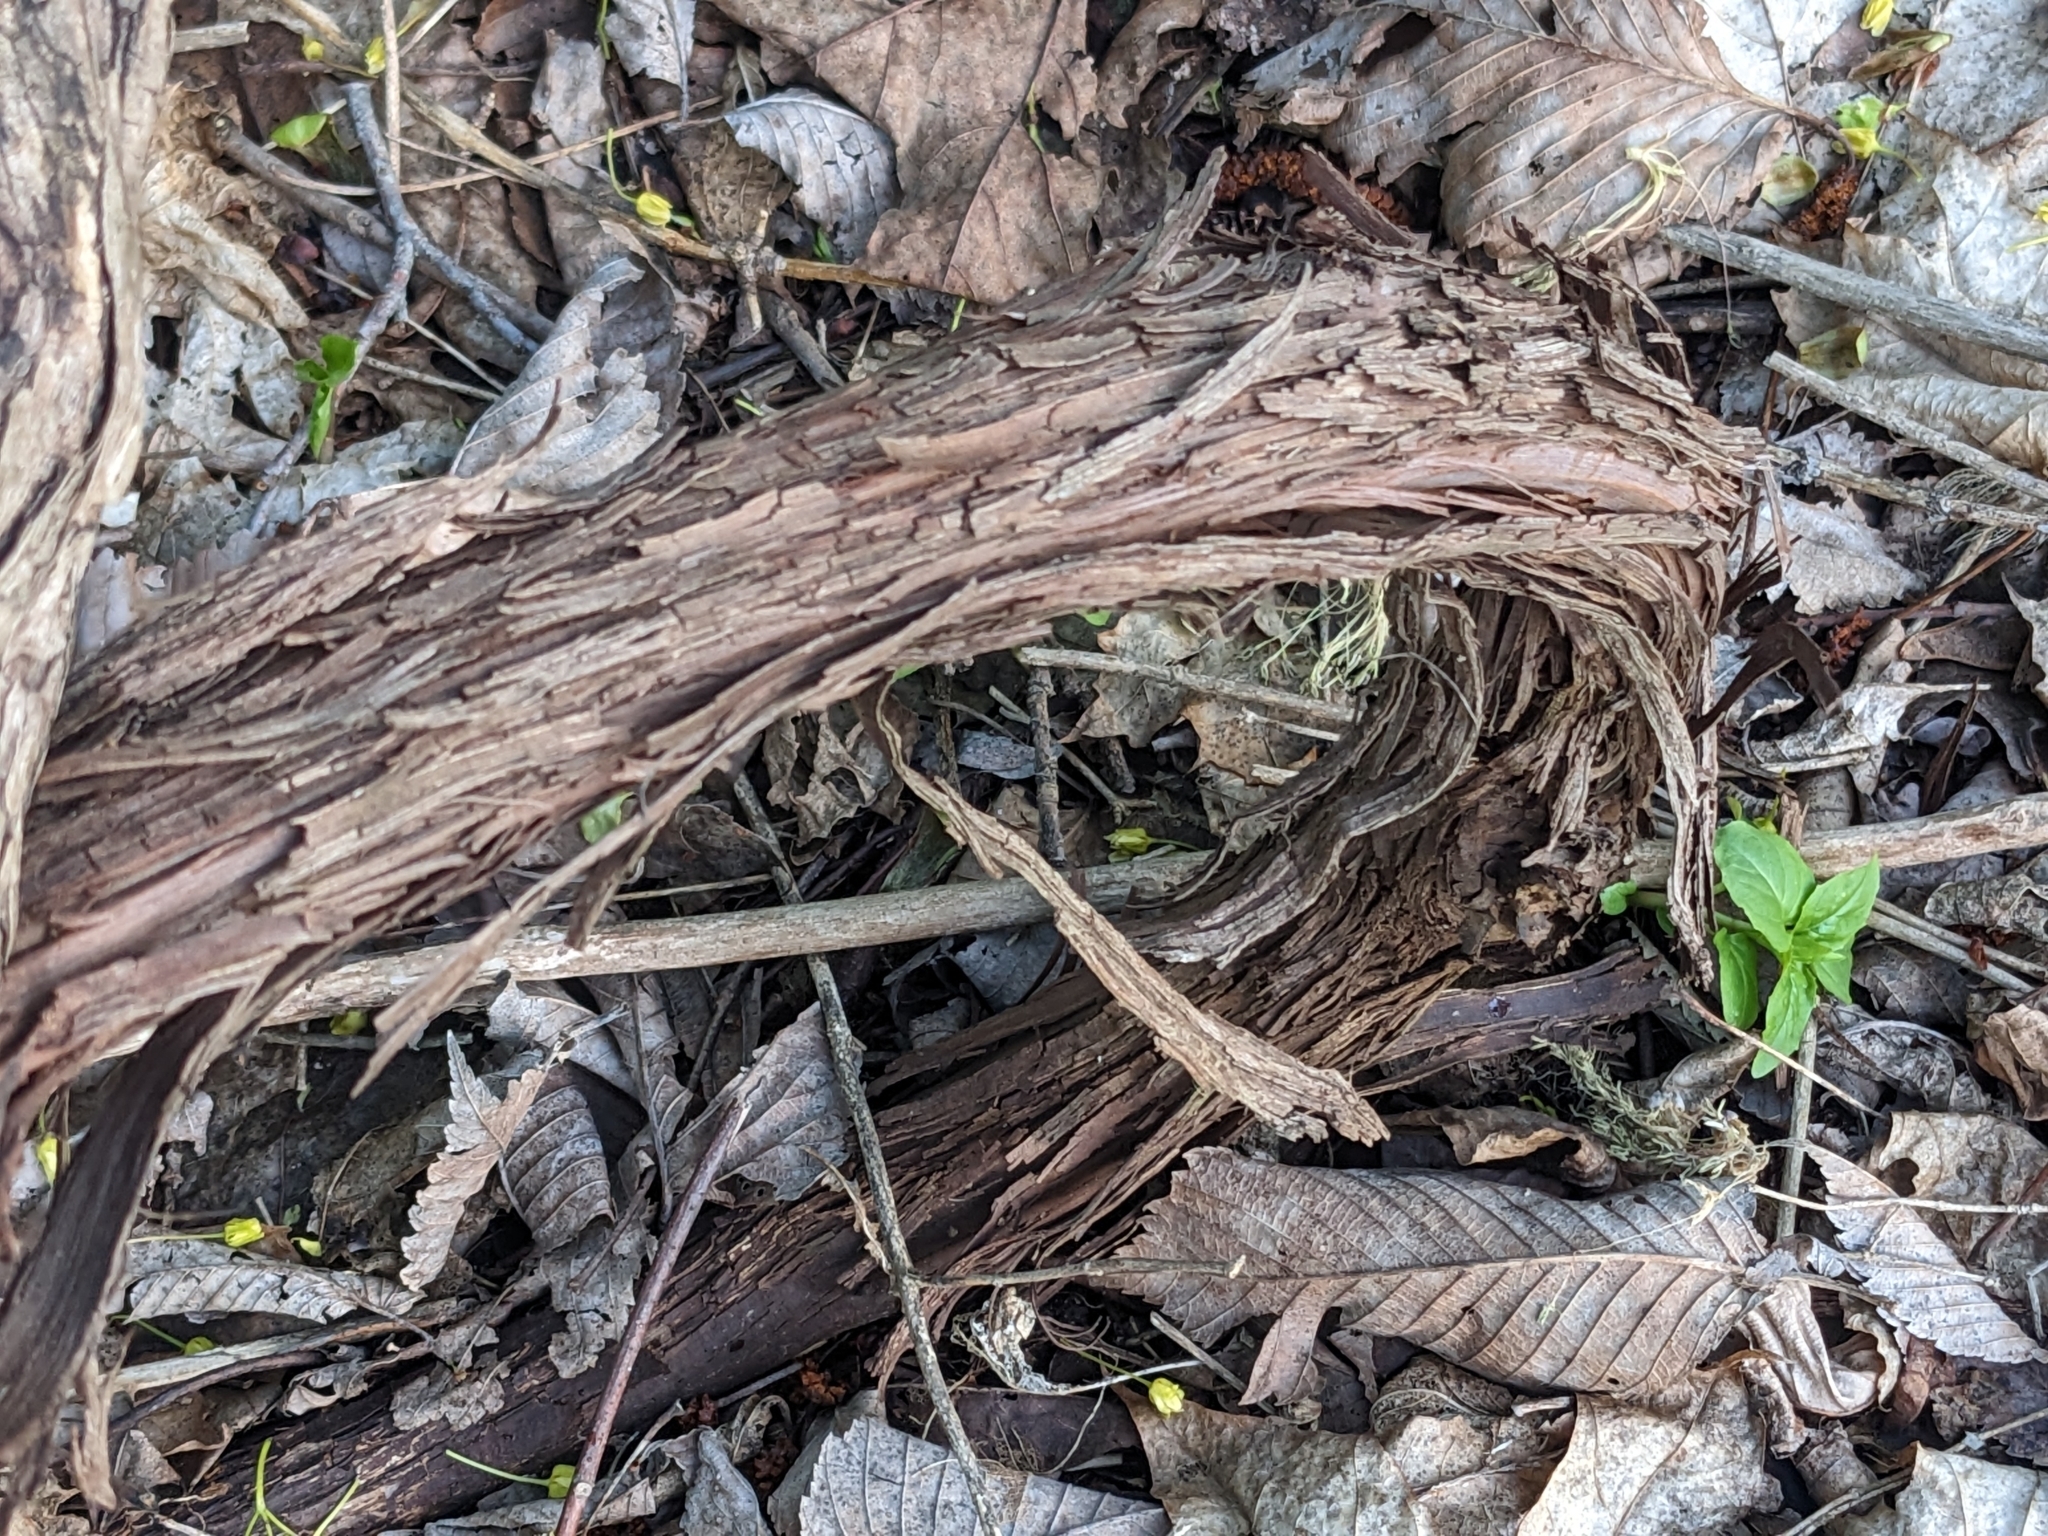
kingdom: Plantae
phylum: Tracheophyta
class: Magnoliopsida
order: Vitales
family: Vitaceae
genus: Vitis
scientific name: Vitis riparia
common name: Frost grape
